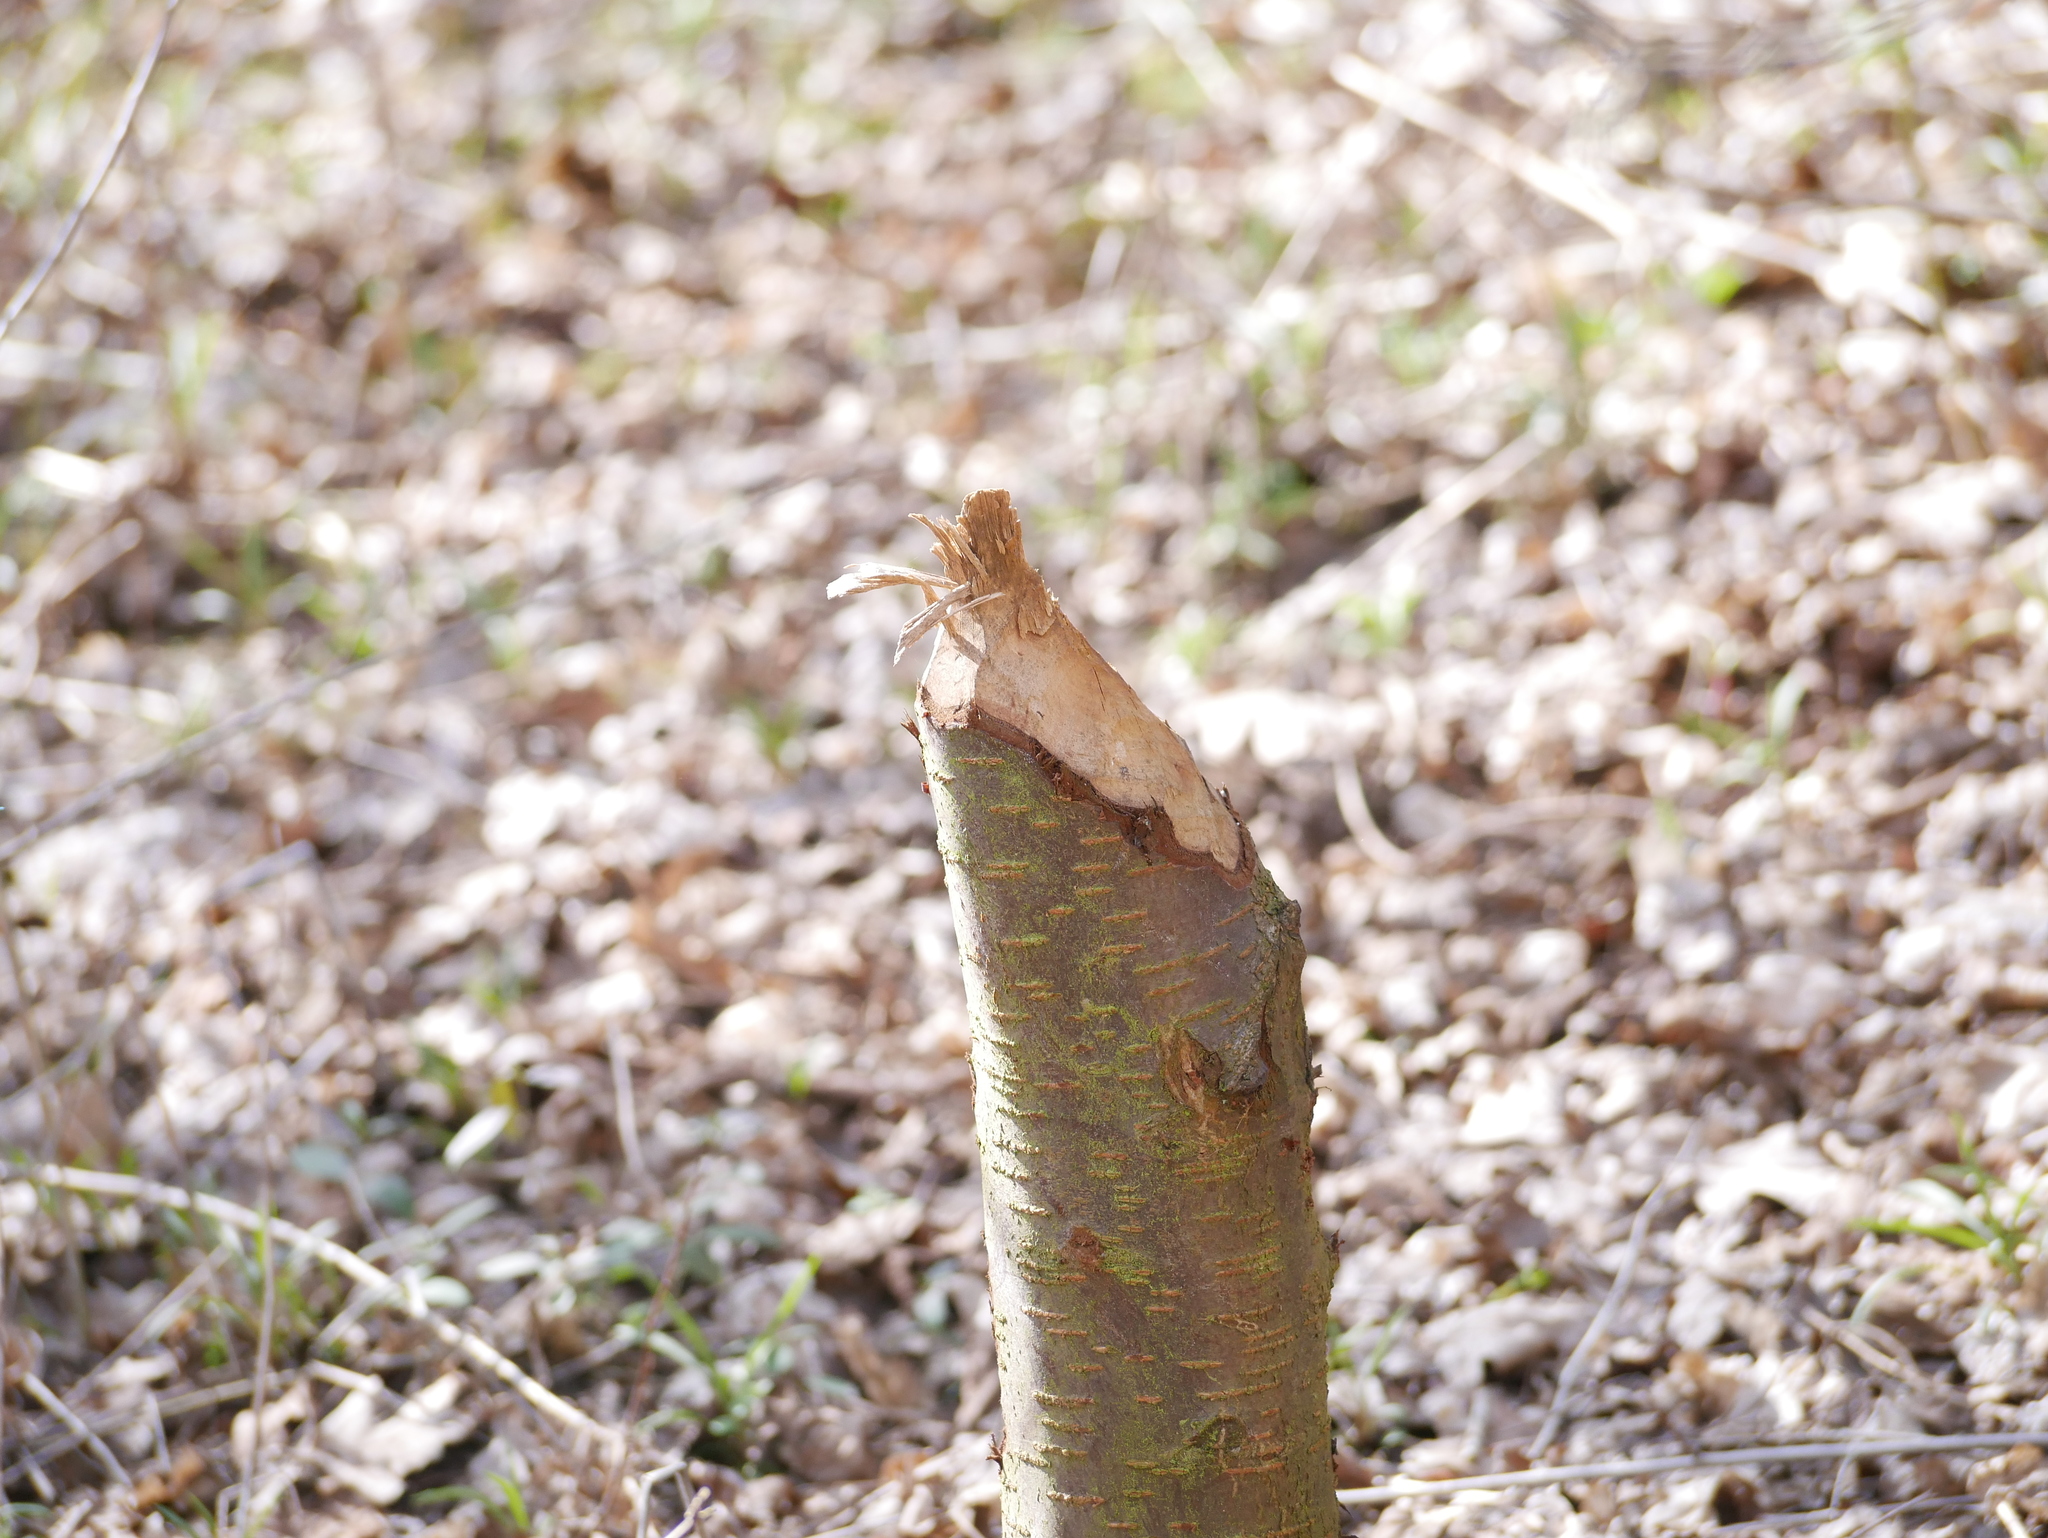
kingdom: Animalia
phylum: Chordata
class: Mammalia
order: Rodentia
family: Castoridae
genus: Castor
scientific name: Castor fiber
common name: Eurasian beaver
